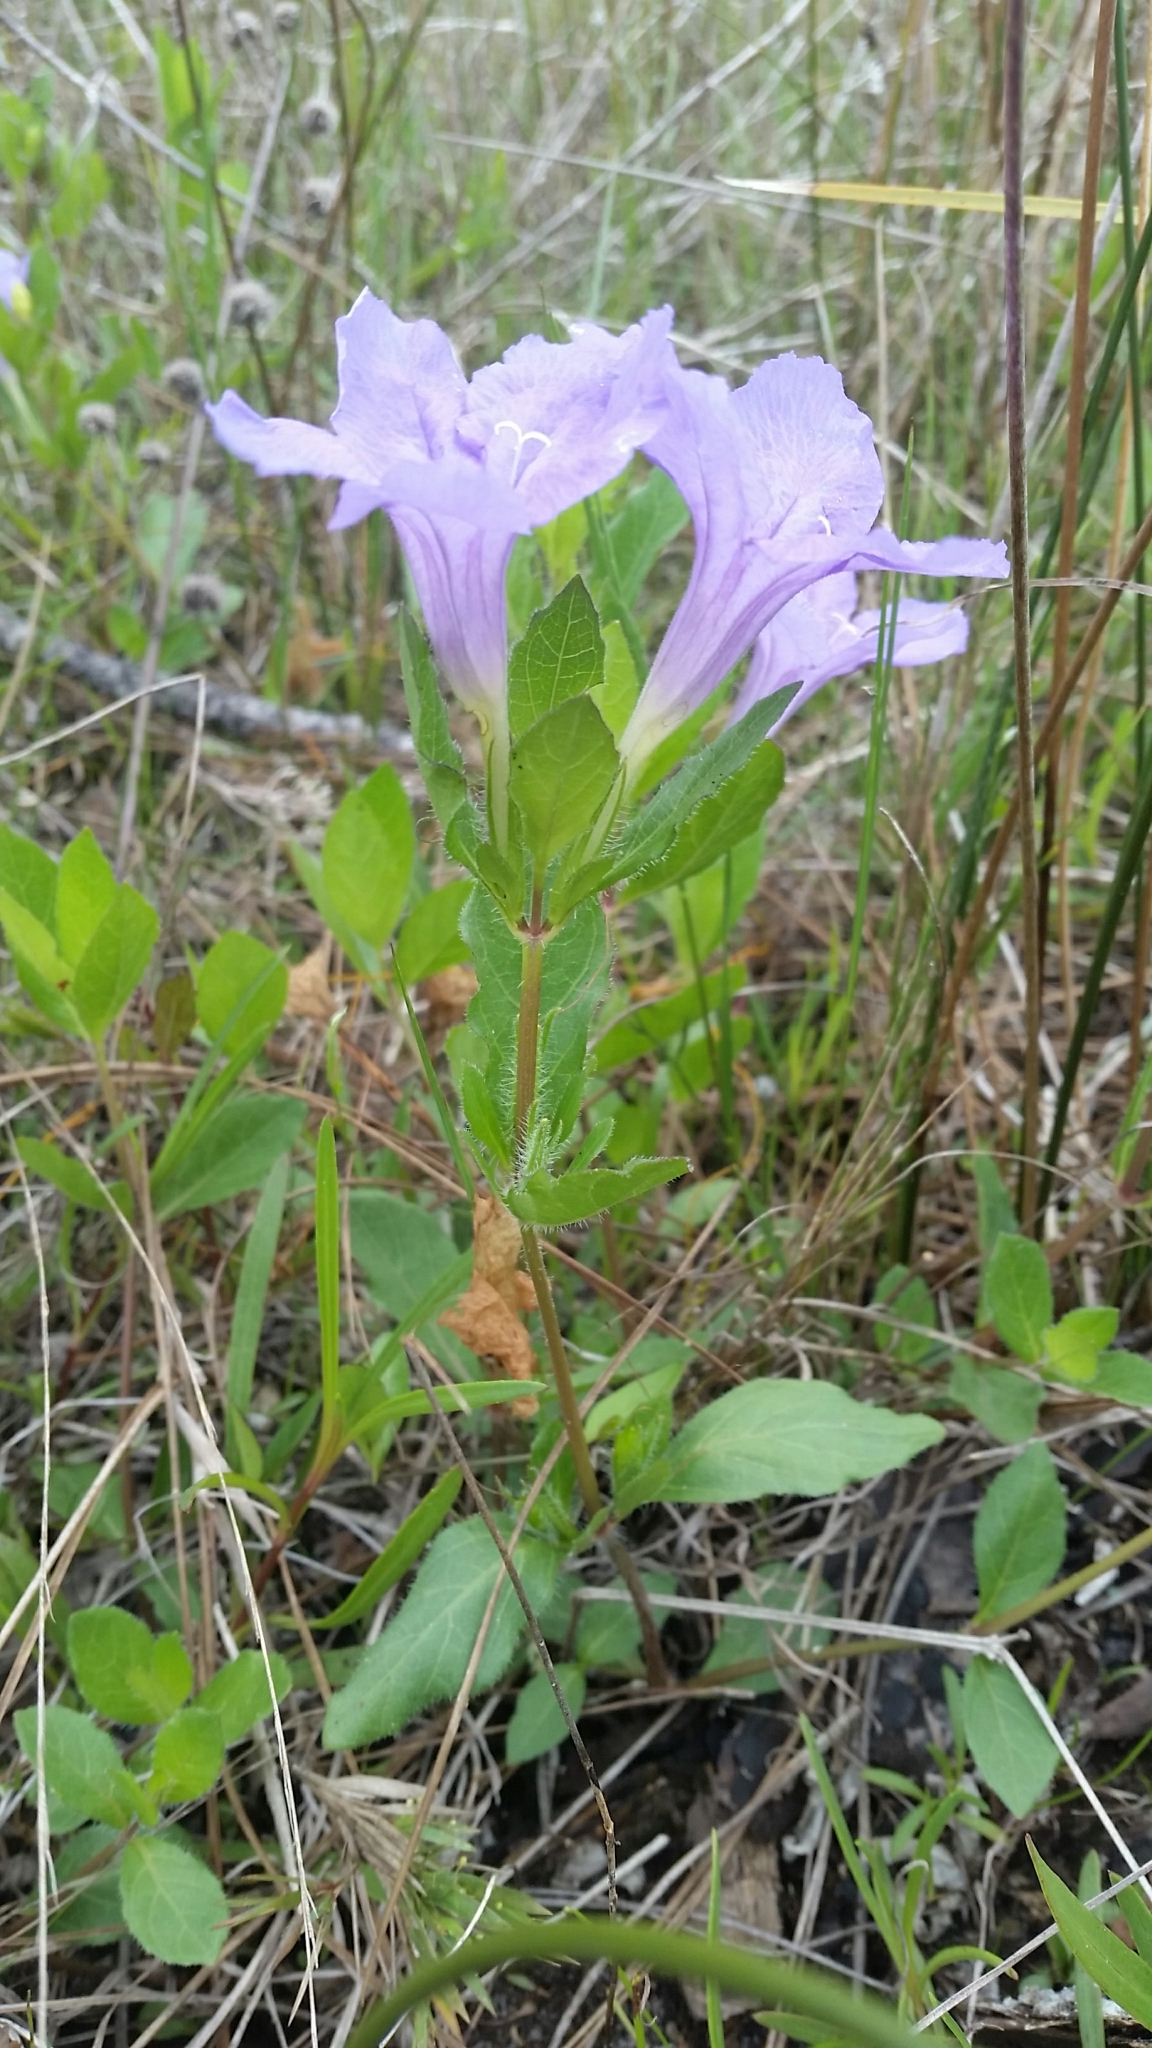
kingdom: Plantae
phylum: Tracheophyta
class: Magnoliopsida
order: Lamiales
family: Acanthaceae
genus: Ruellia
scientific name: Ruellia caroliniensis
